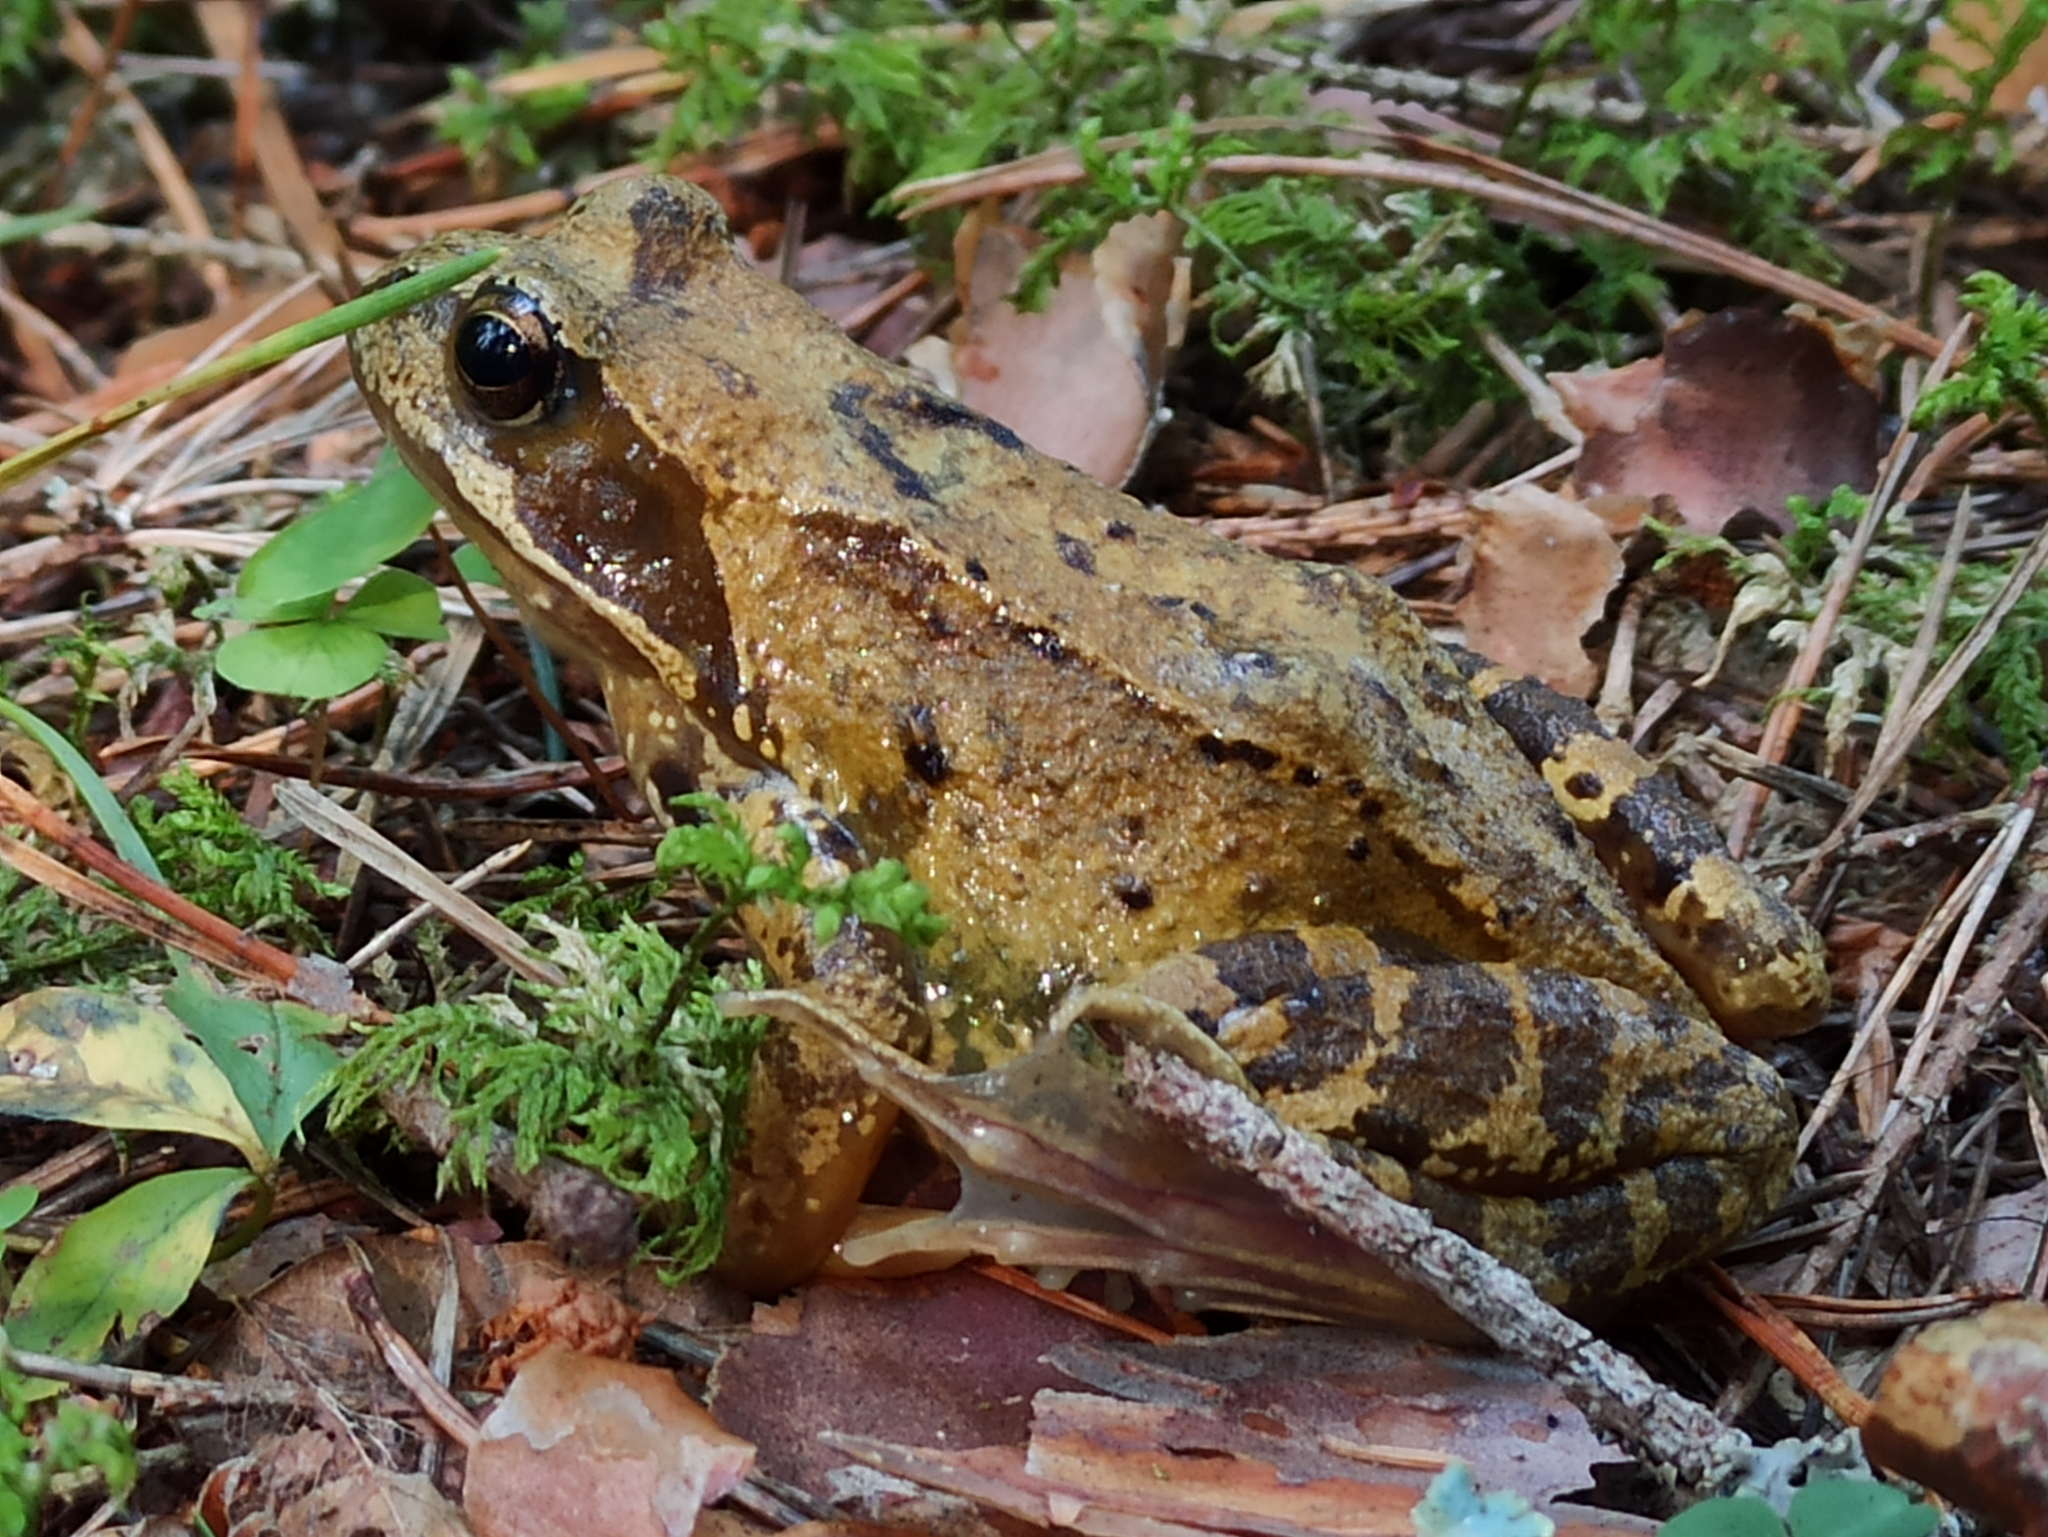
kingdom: Animalia
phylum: Chordata
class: Amphibia
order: Anura
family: Ranidae
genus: Rana
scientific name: Rana temporaria
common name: Common frog
